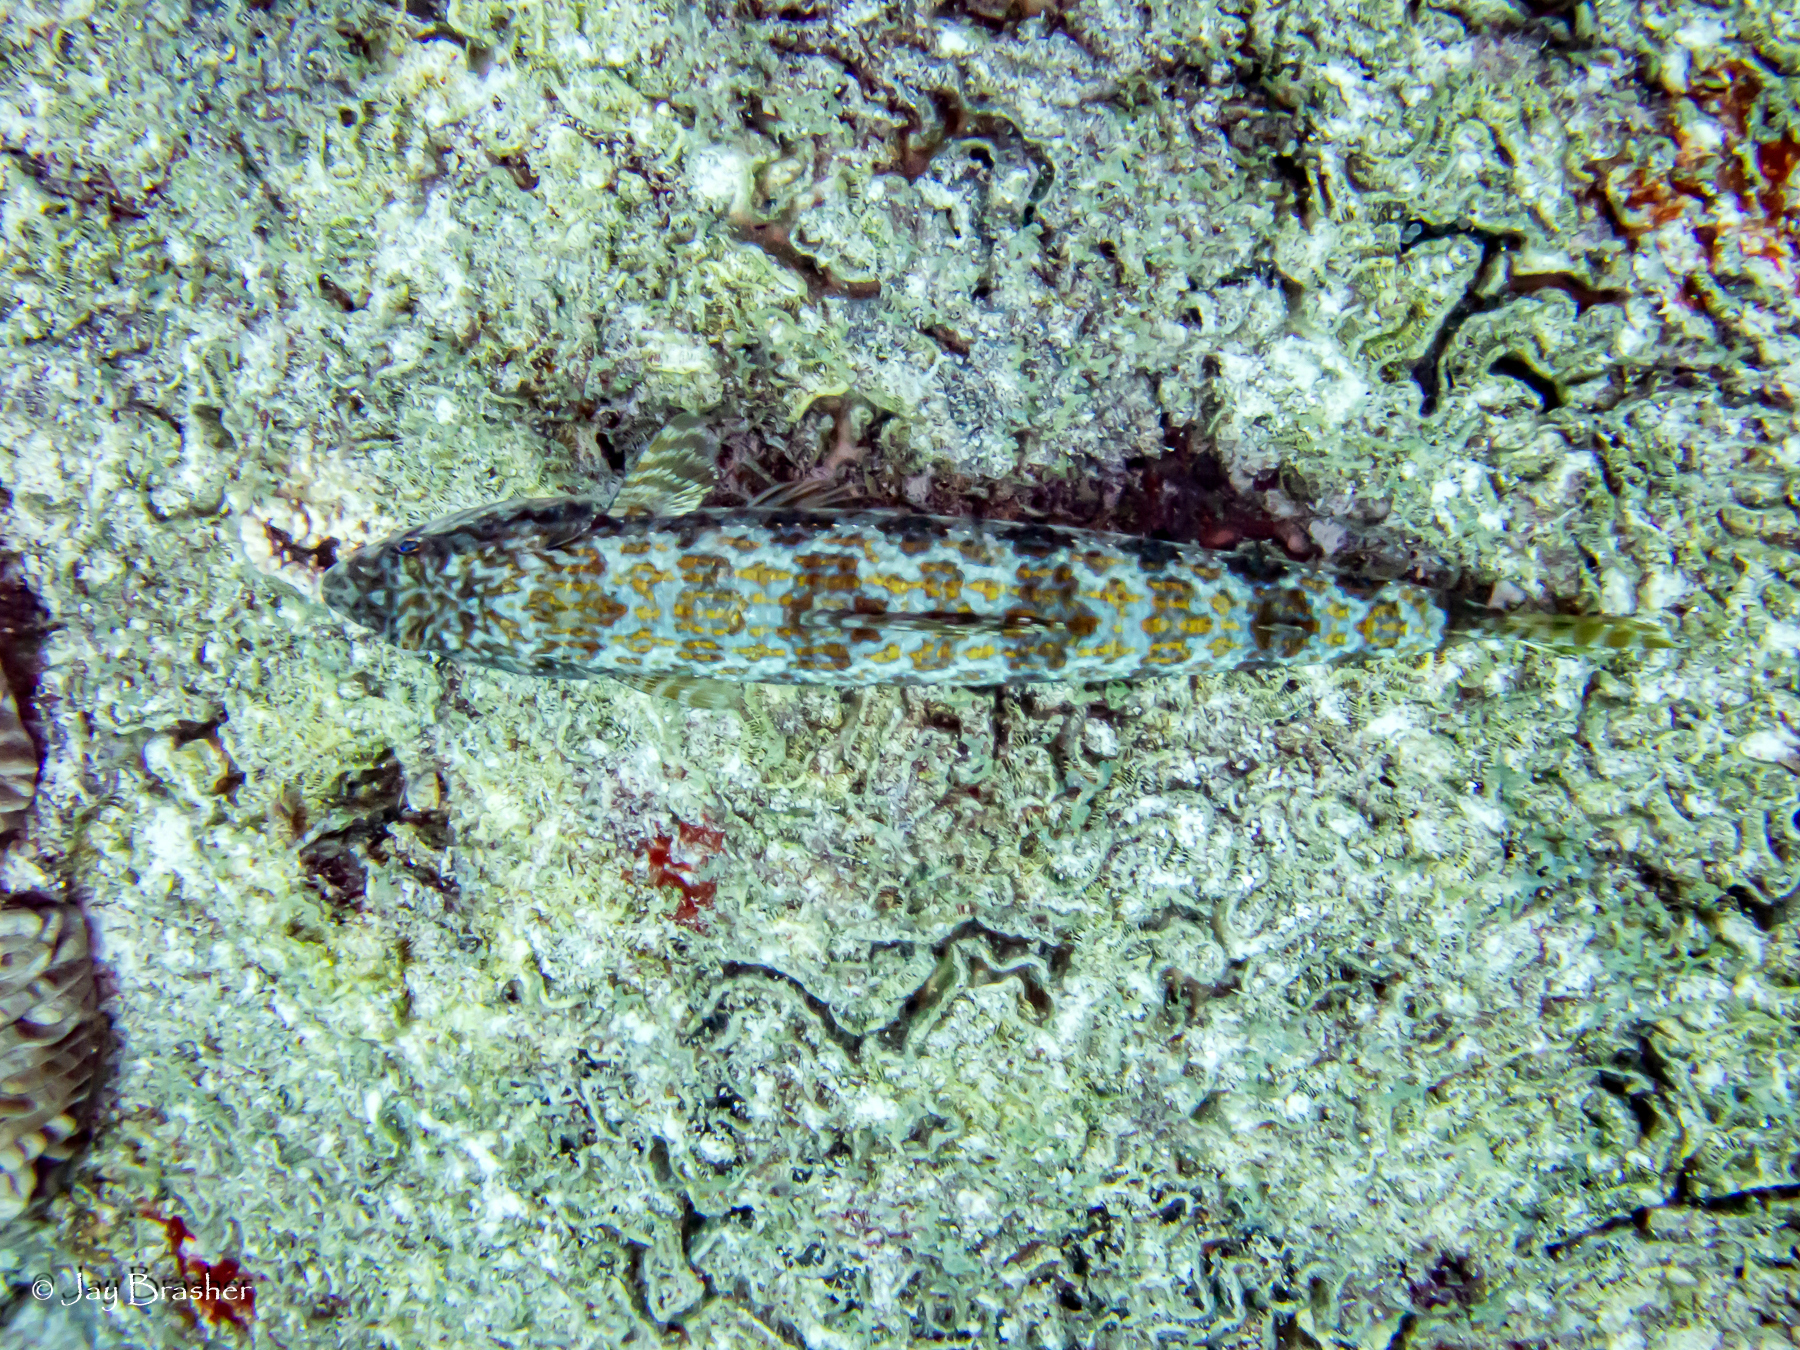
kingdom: Animalia
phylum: Chordata
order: Aulopiformes
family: Synodontidae
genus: Synodus
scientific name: Synodus intermedius
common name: Sand diver
